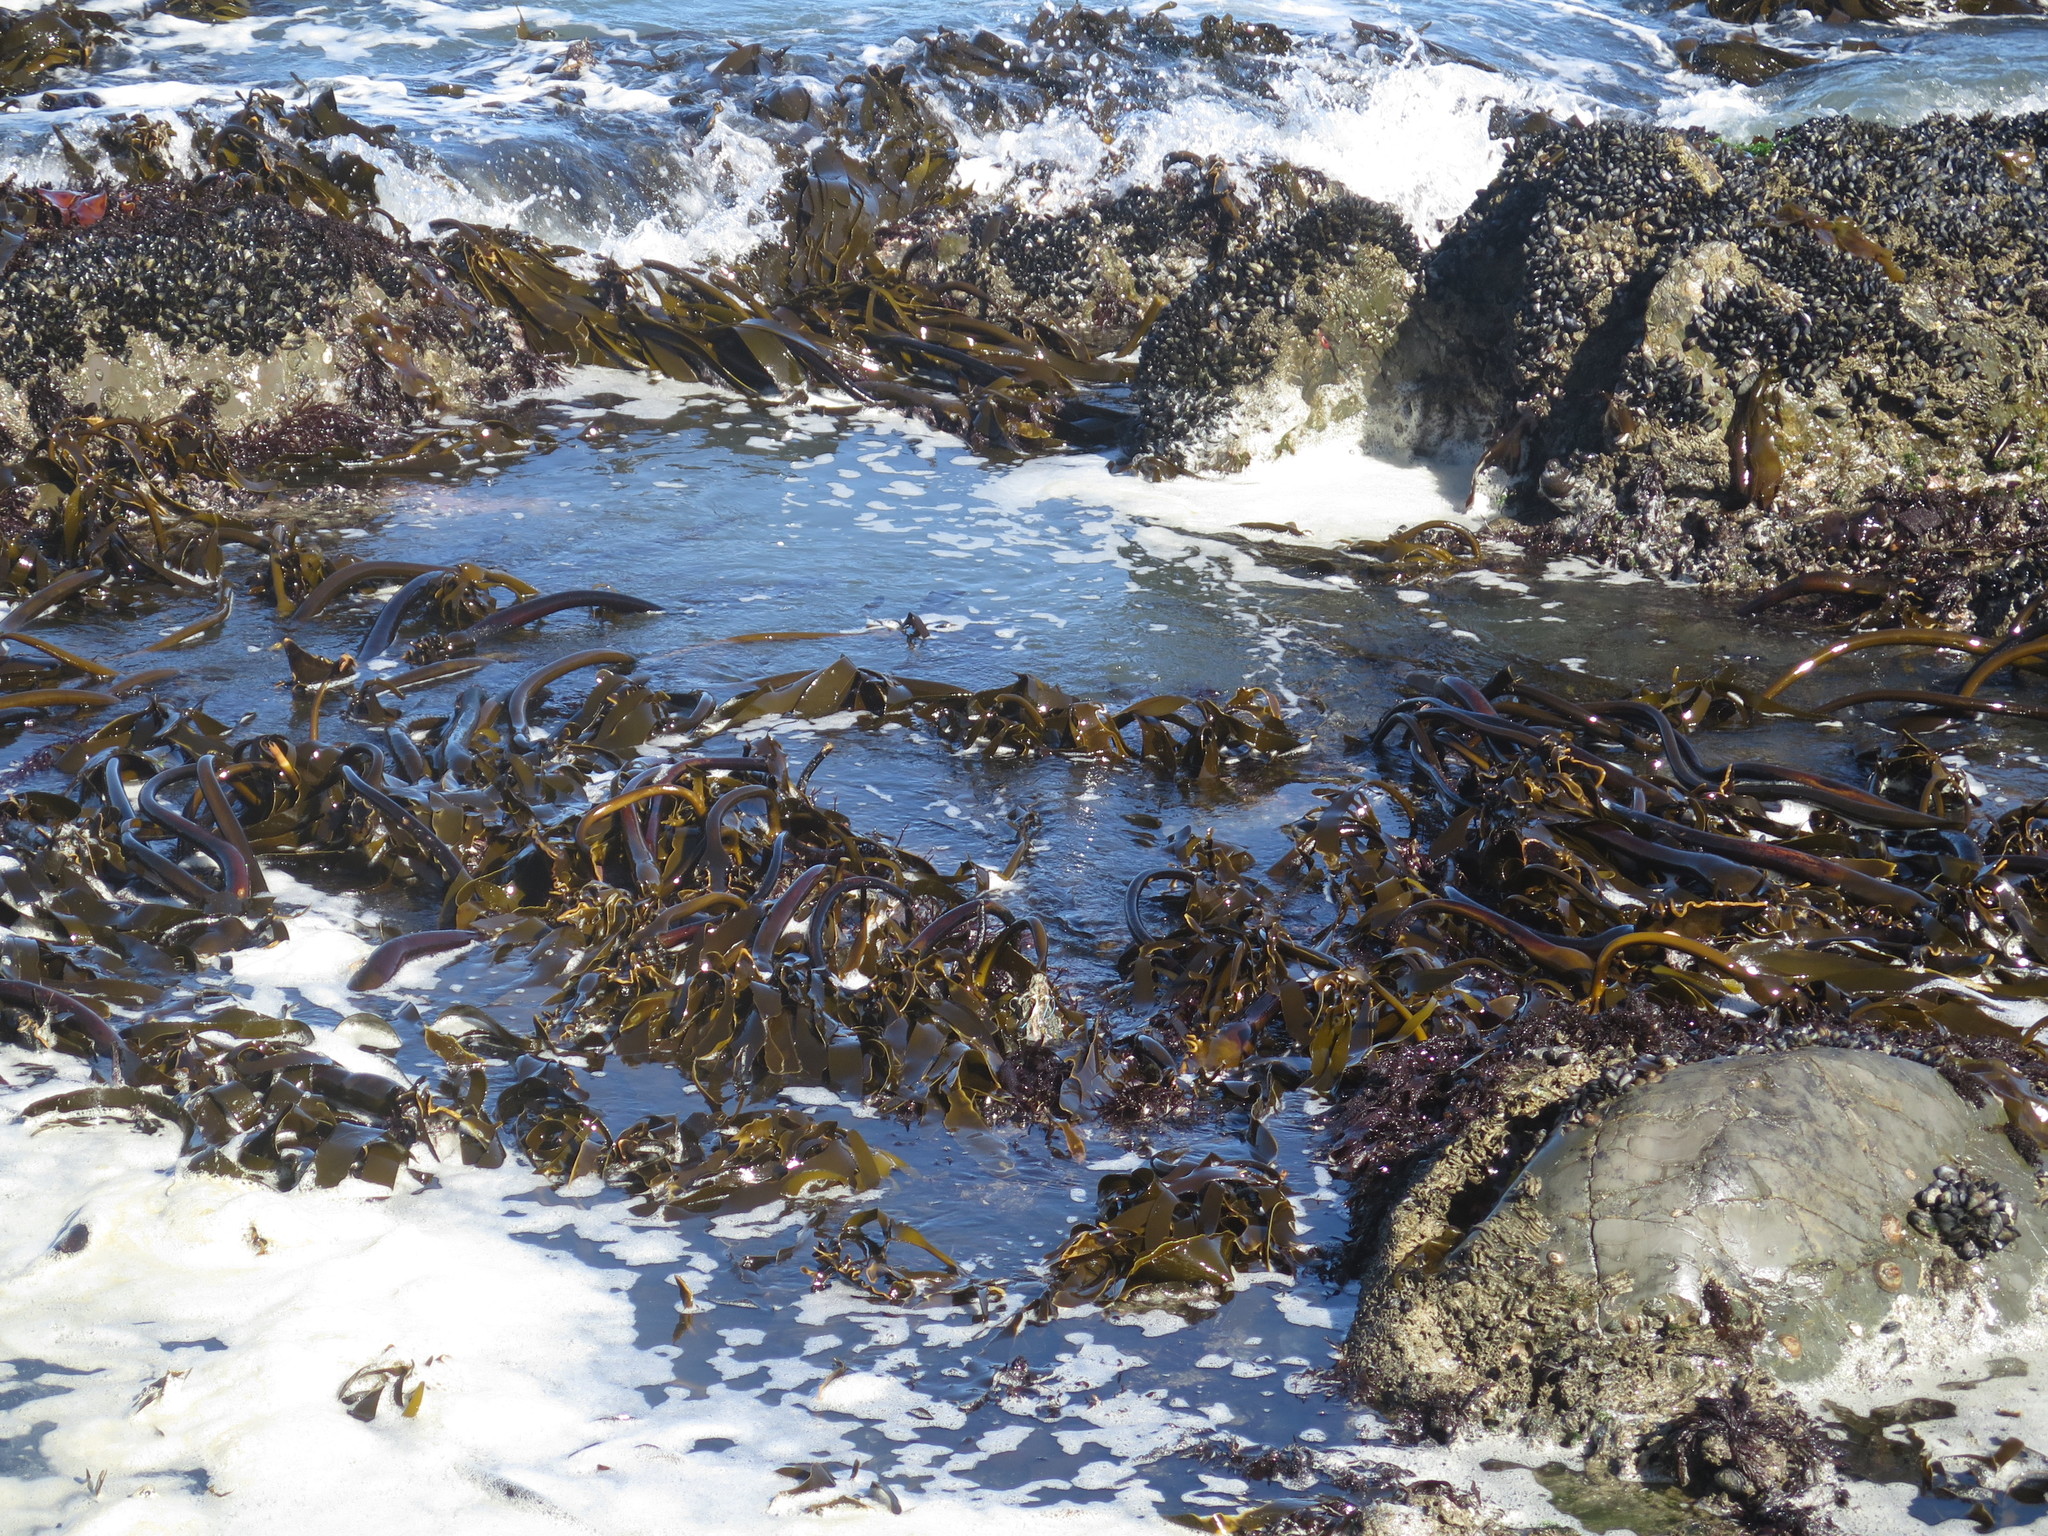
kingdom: Chromista
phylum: Ochrophyta
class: Phaeophyceae
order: Laminariales
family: Lessoniaceae
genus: Ecklonia
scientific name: Ecklonia
